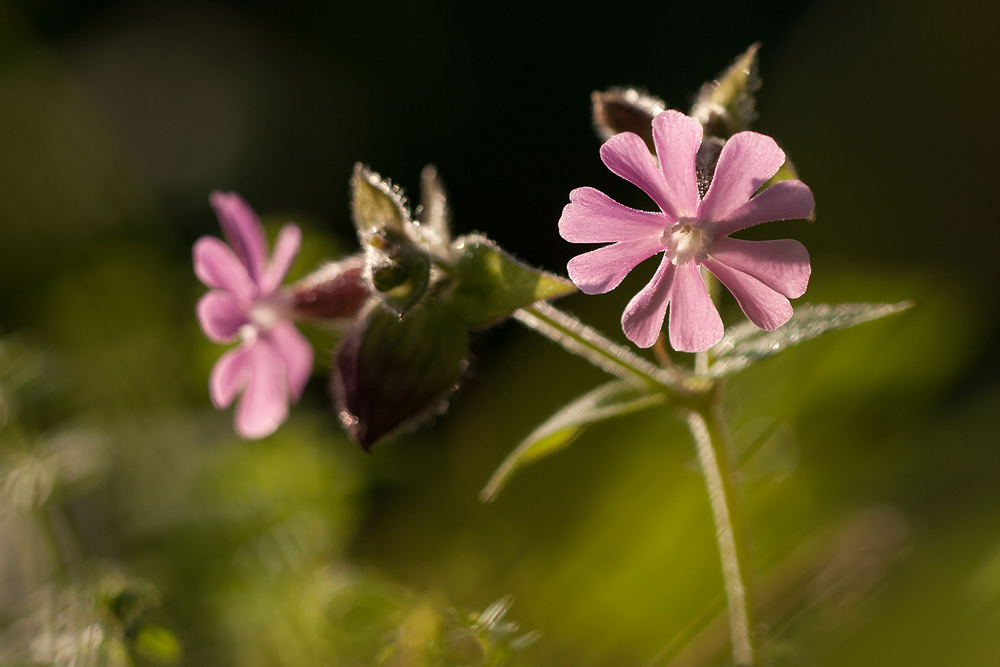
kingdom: Plantae
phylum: Tracheophyta
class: Magnoliopsida
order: Caryophyllales
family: Caryophyllaceae
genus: Silene
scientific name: Silene dioica
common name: Red campion
